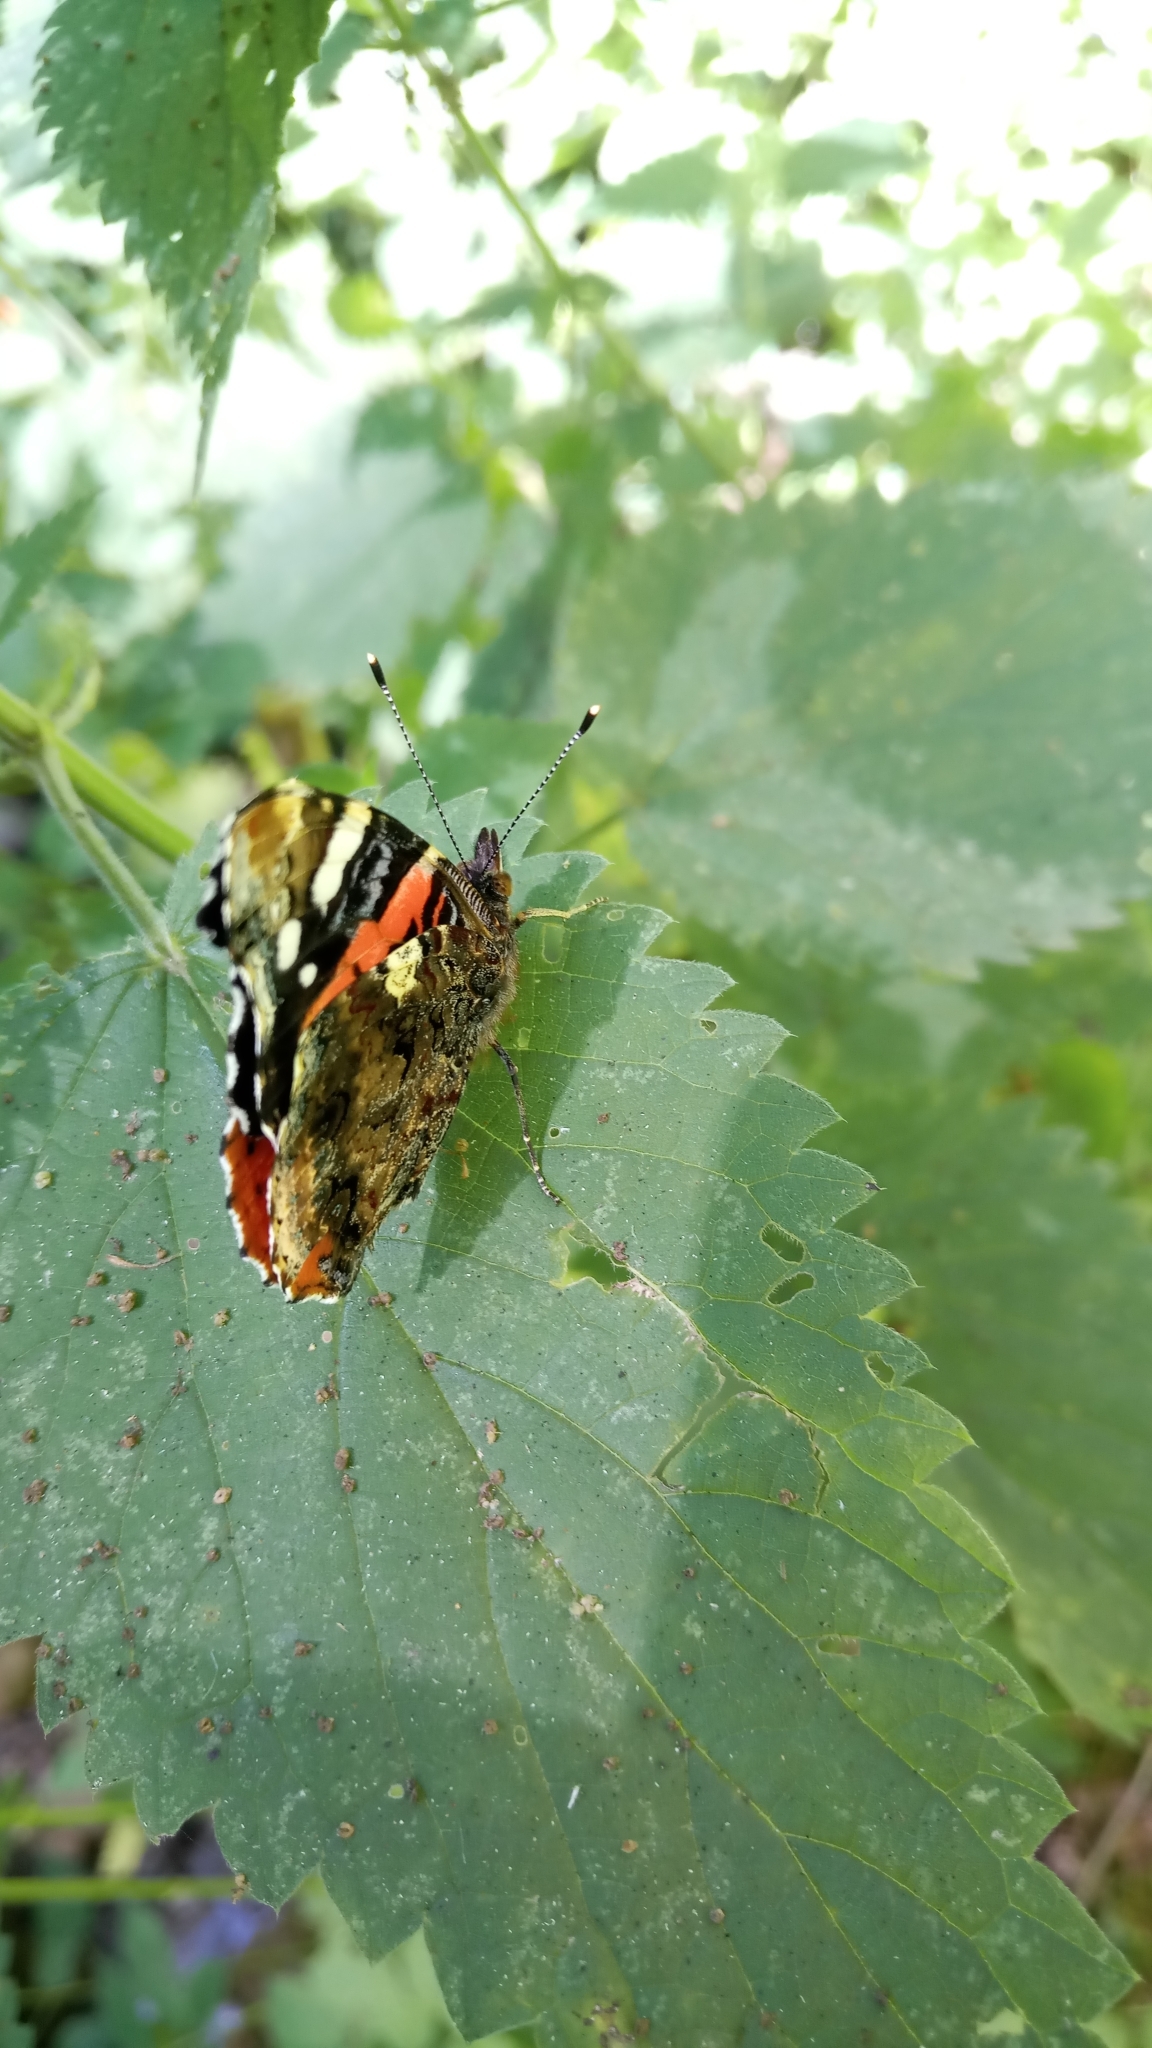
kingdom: Animalia
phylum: Arthropoda
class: Insecta
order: Lepidoptera
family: Nymphalidae
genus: Vanessa
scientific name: Vanessa atalanta
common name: Red admiral
